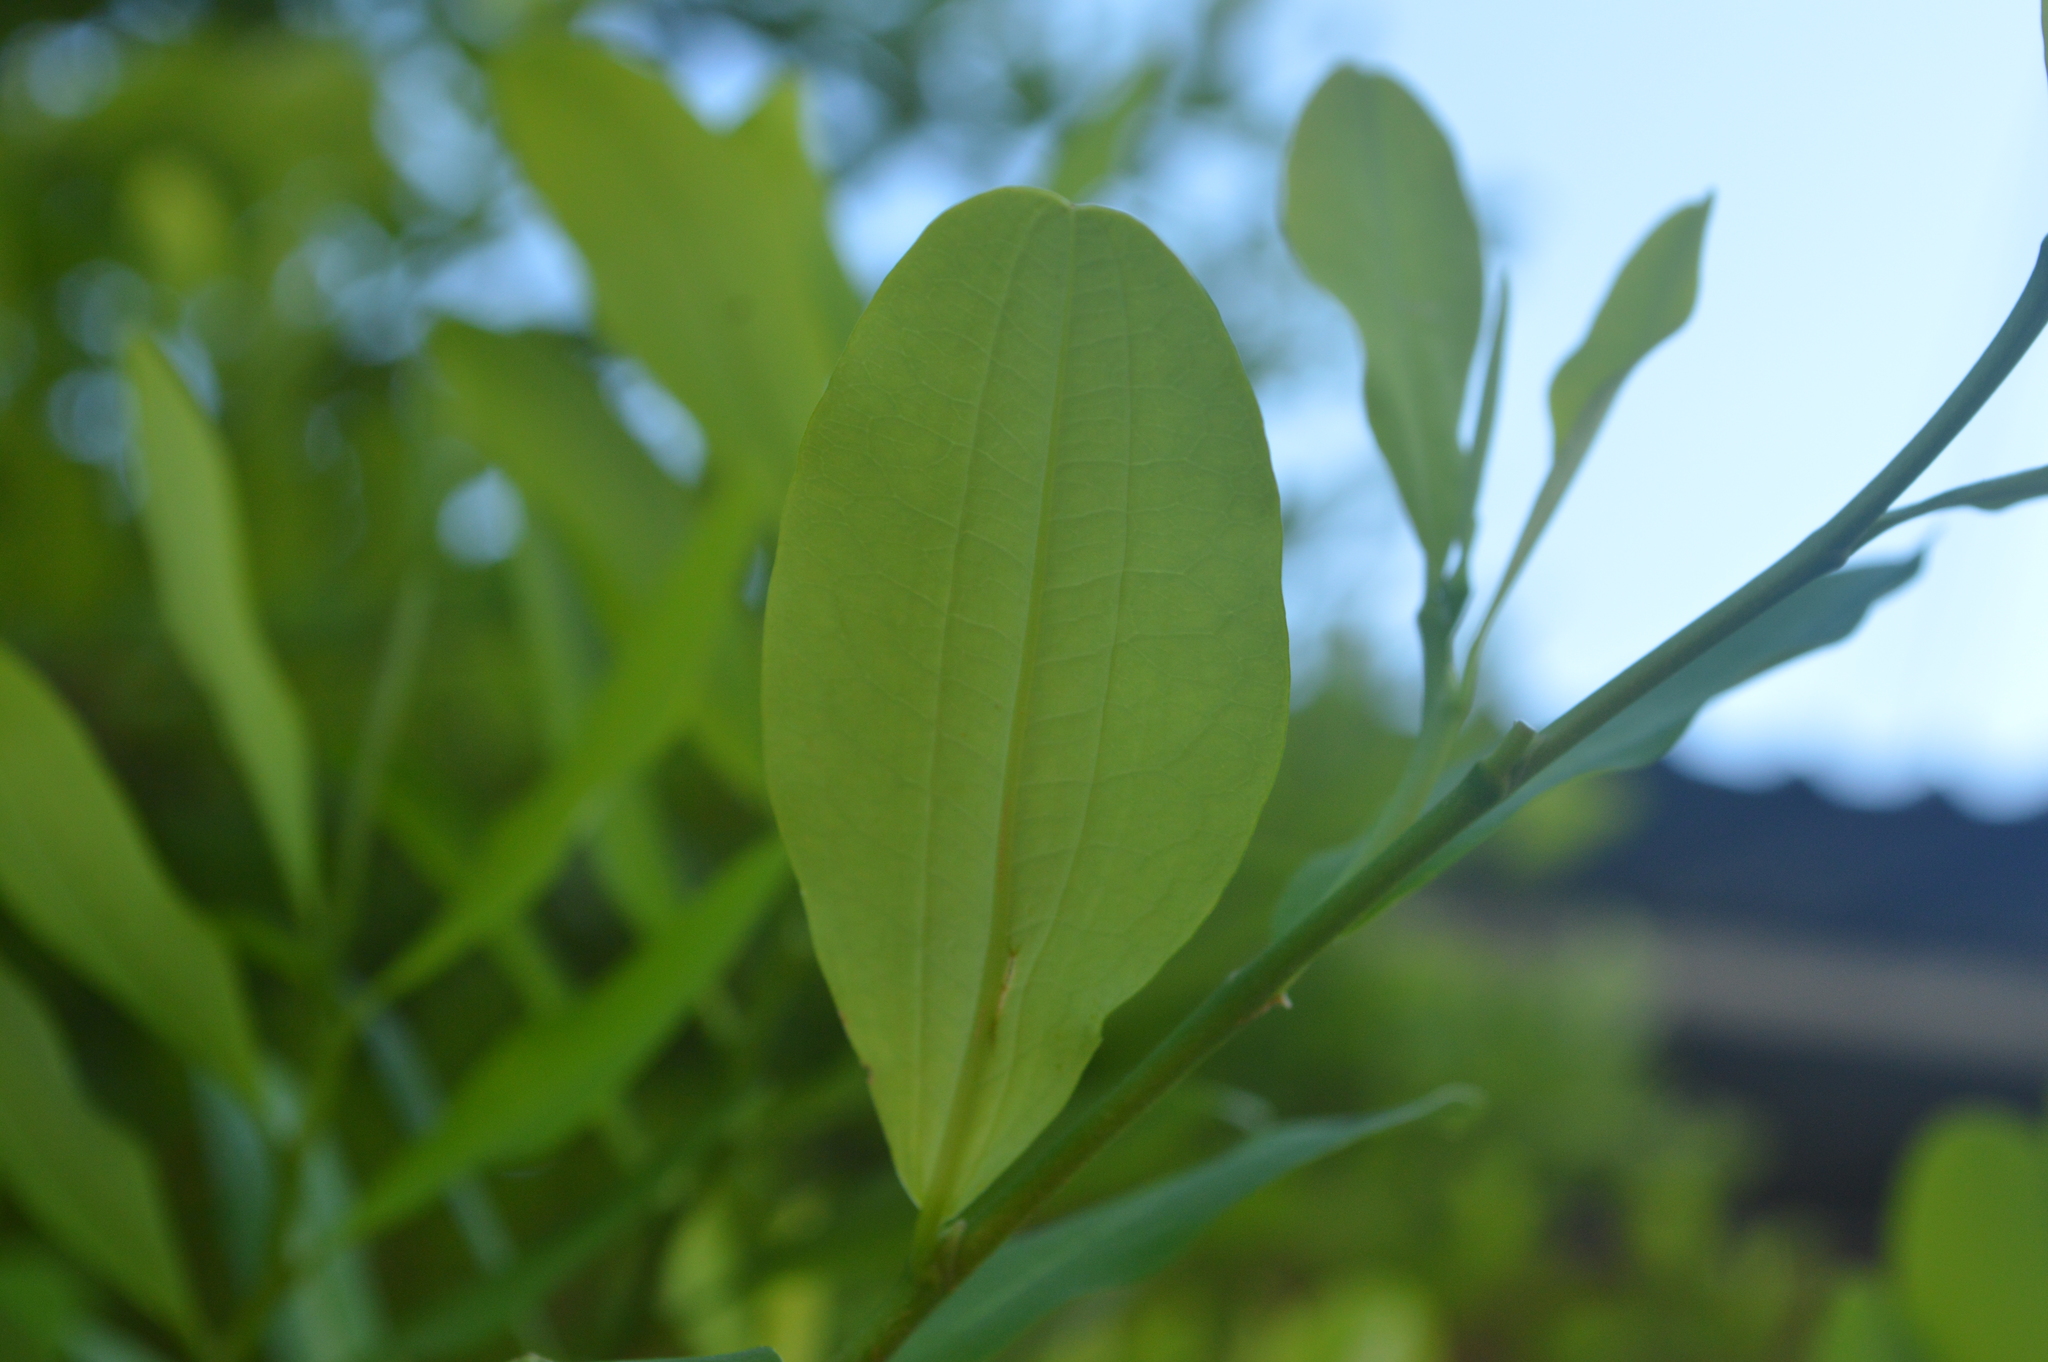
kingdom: Plantae
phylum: Tracheophyta
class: Magnoliopsida
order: Malpighiales
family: Erythroxylaceae
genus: Erythroxylum
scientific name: Erythroxylum coca
